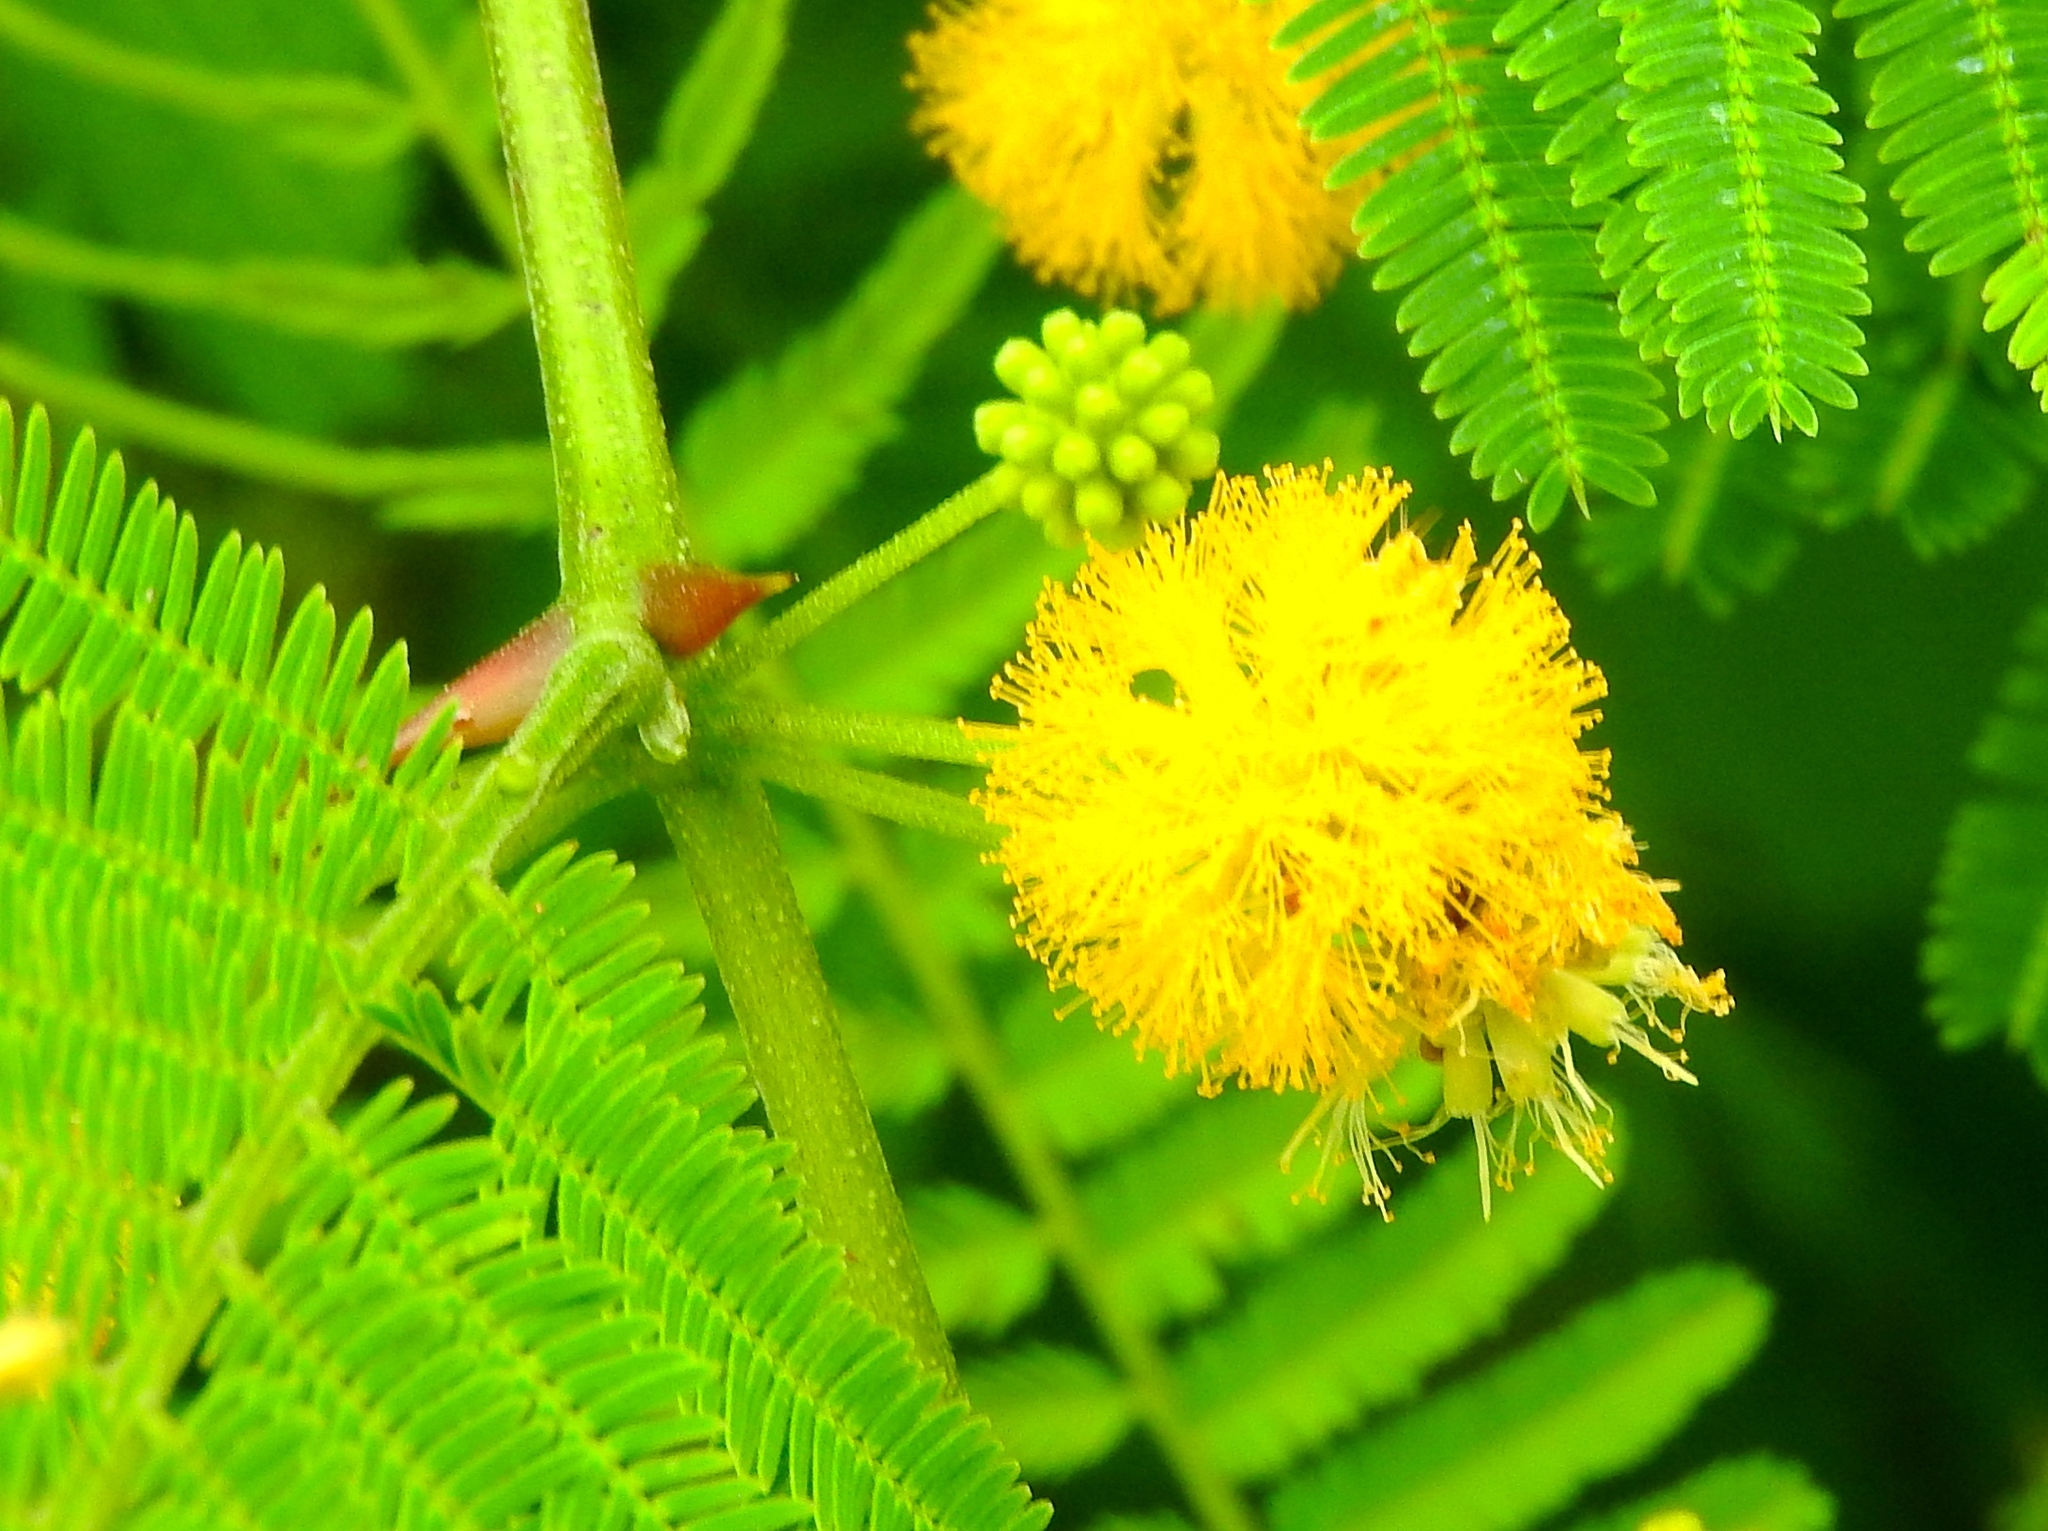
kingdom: Plantae
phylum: Tracheophyta
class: Magnoliopsida
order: Fabales
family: Fabaceae
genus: Vachellia
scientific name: Vachellia campechiana
